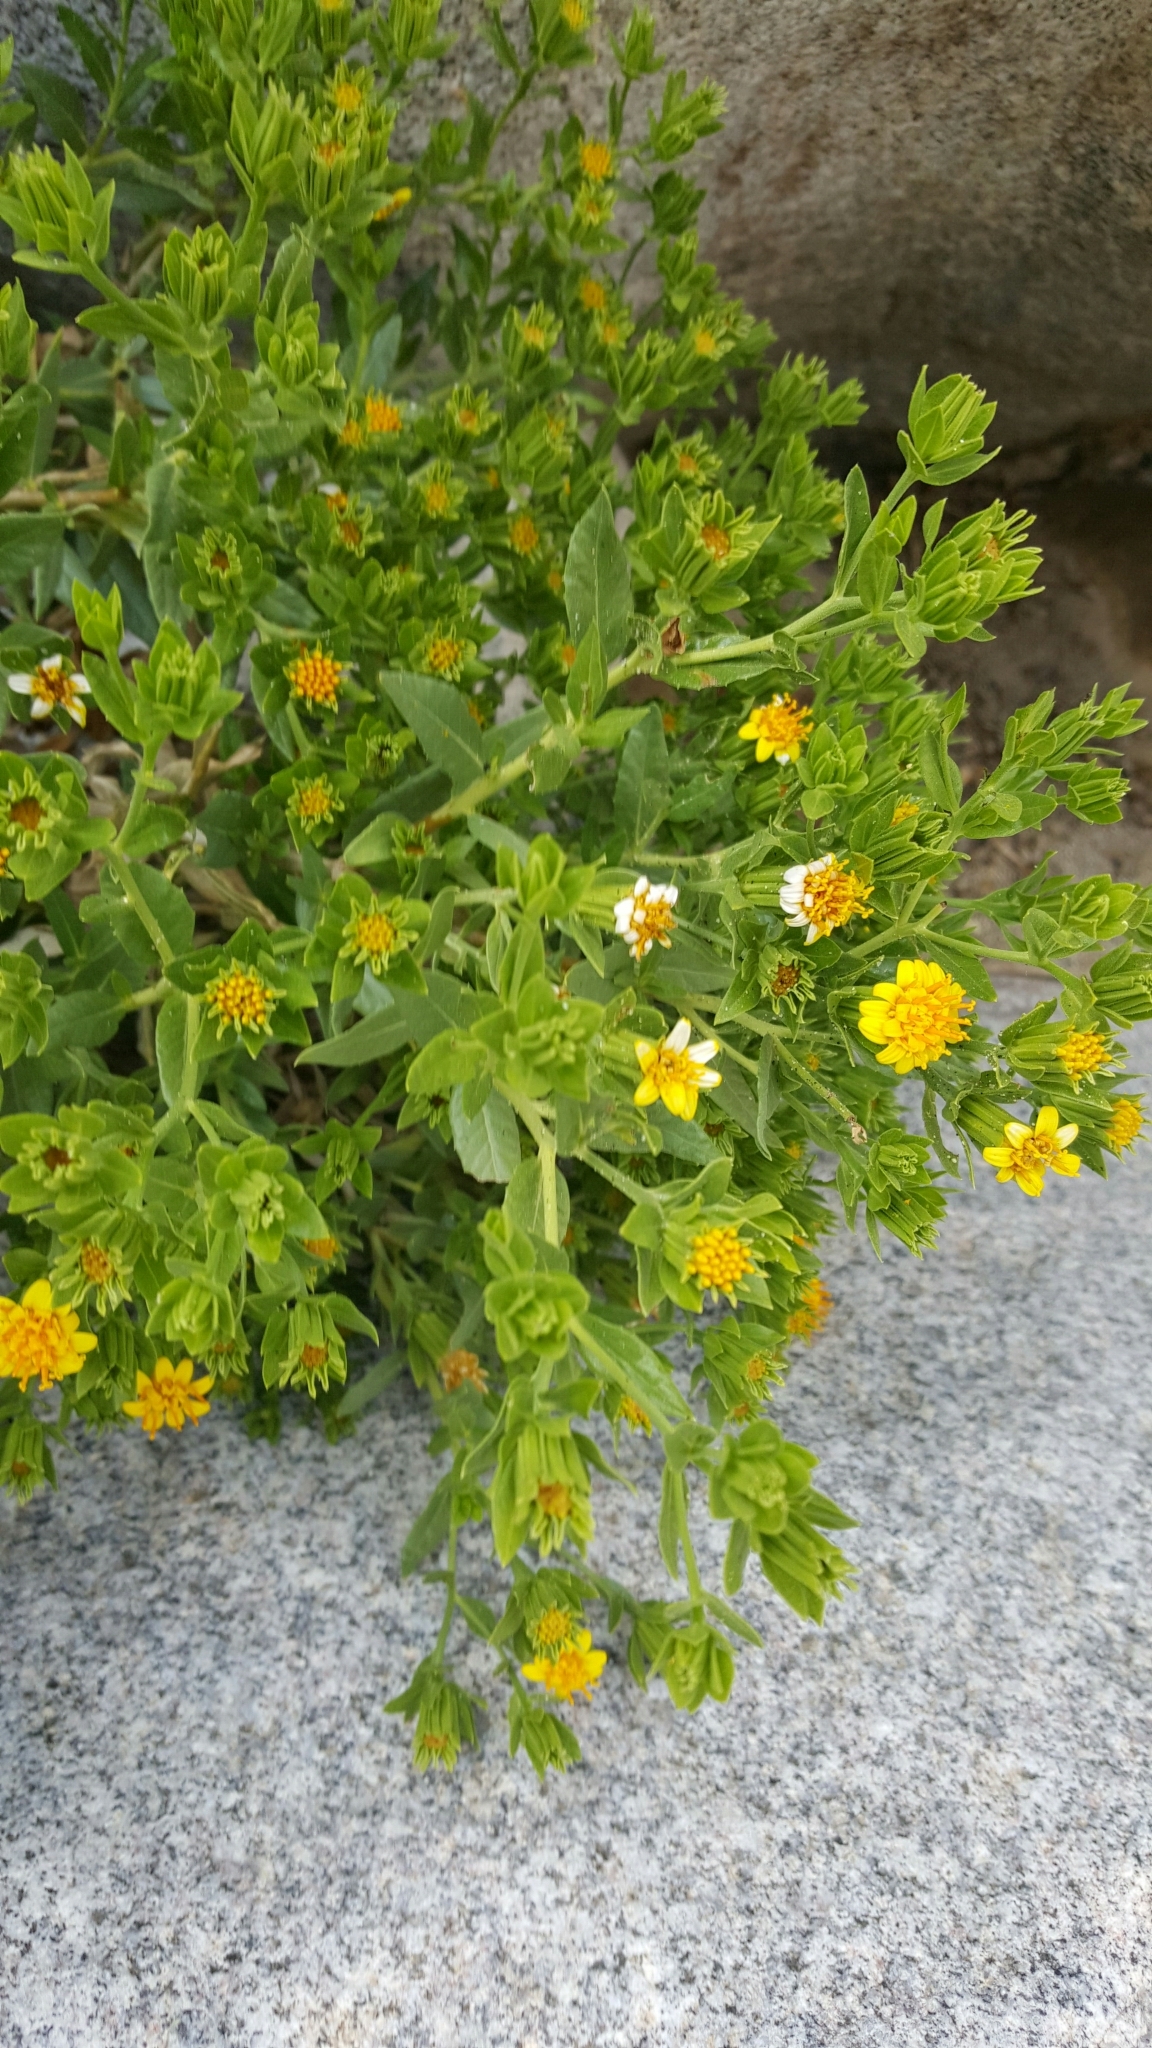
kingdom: Plantae
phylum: Tracheophyta
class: Magnoliopsida
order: Asterales
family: Asteraceae
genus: Trixis
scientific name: Trixis californica
